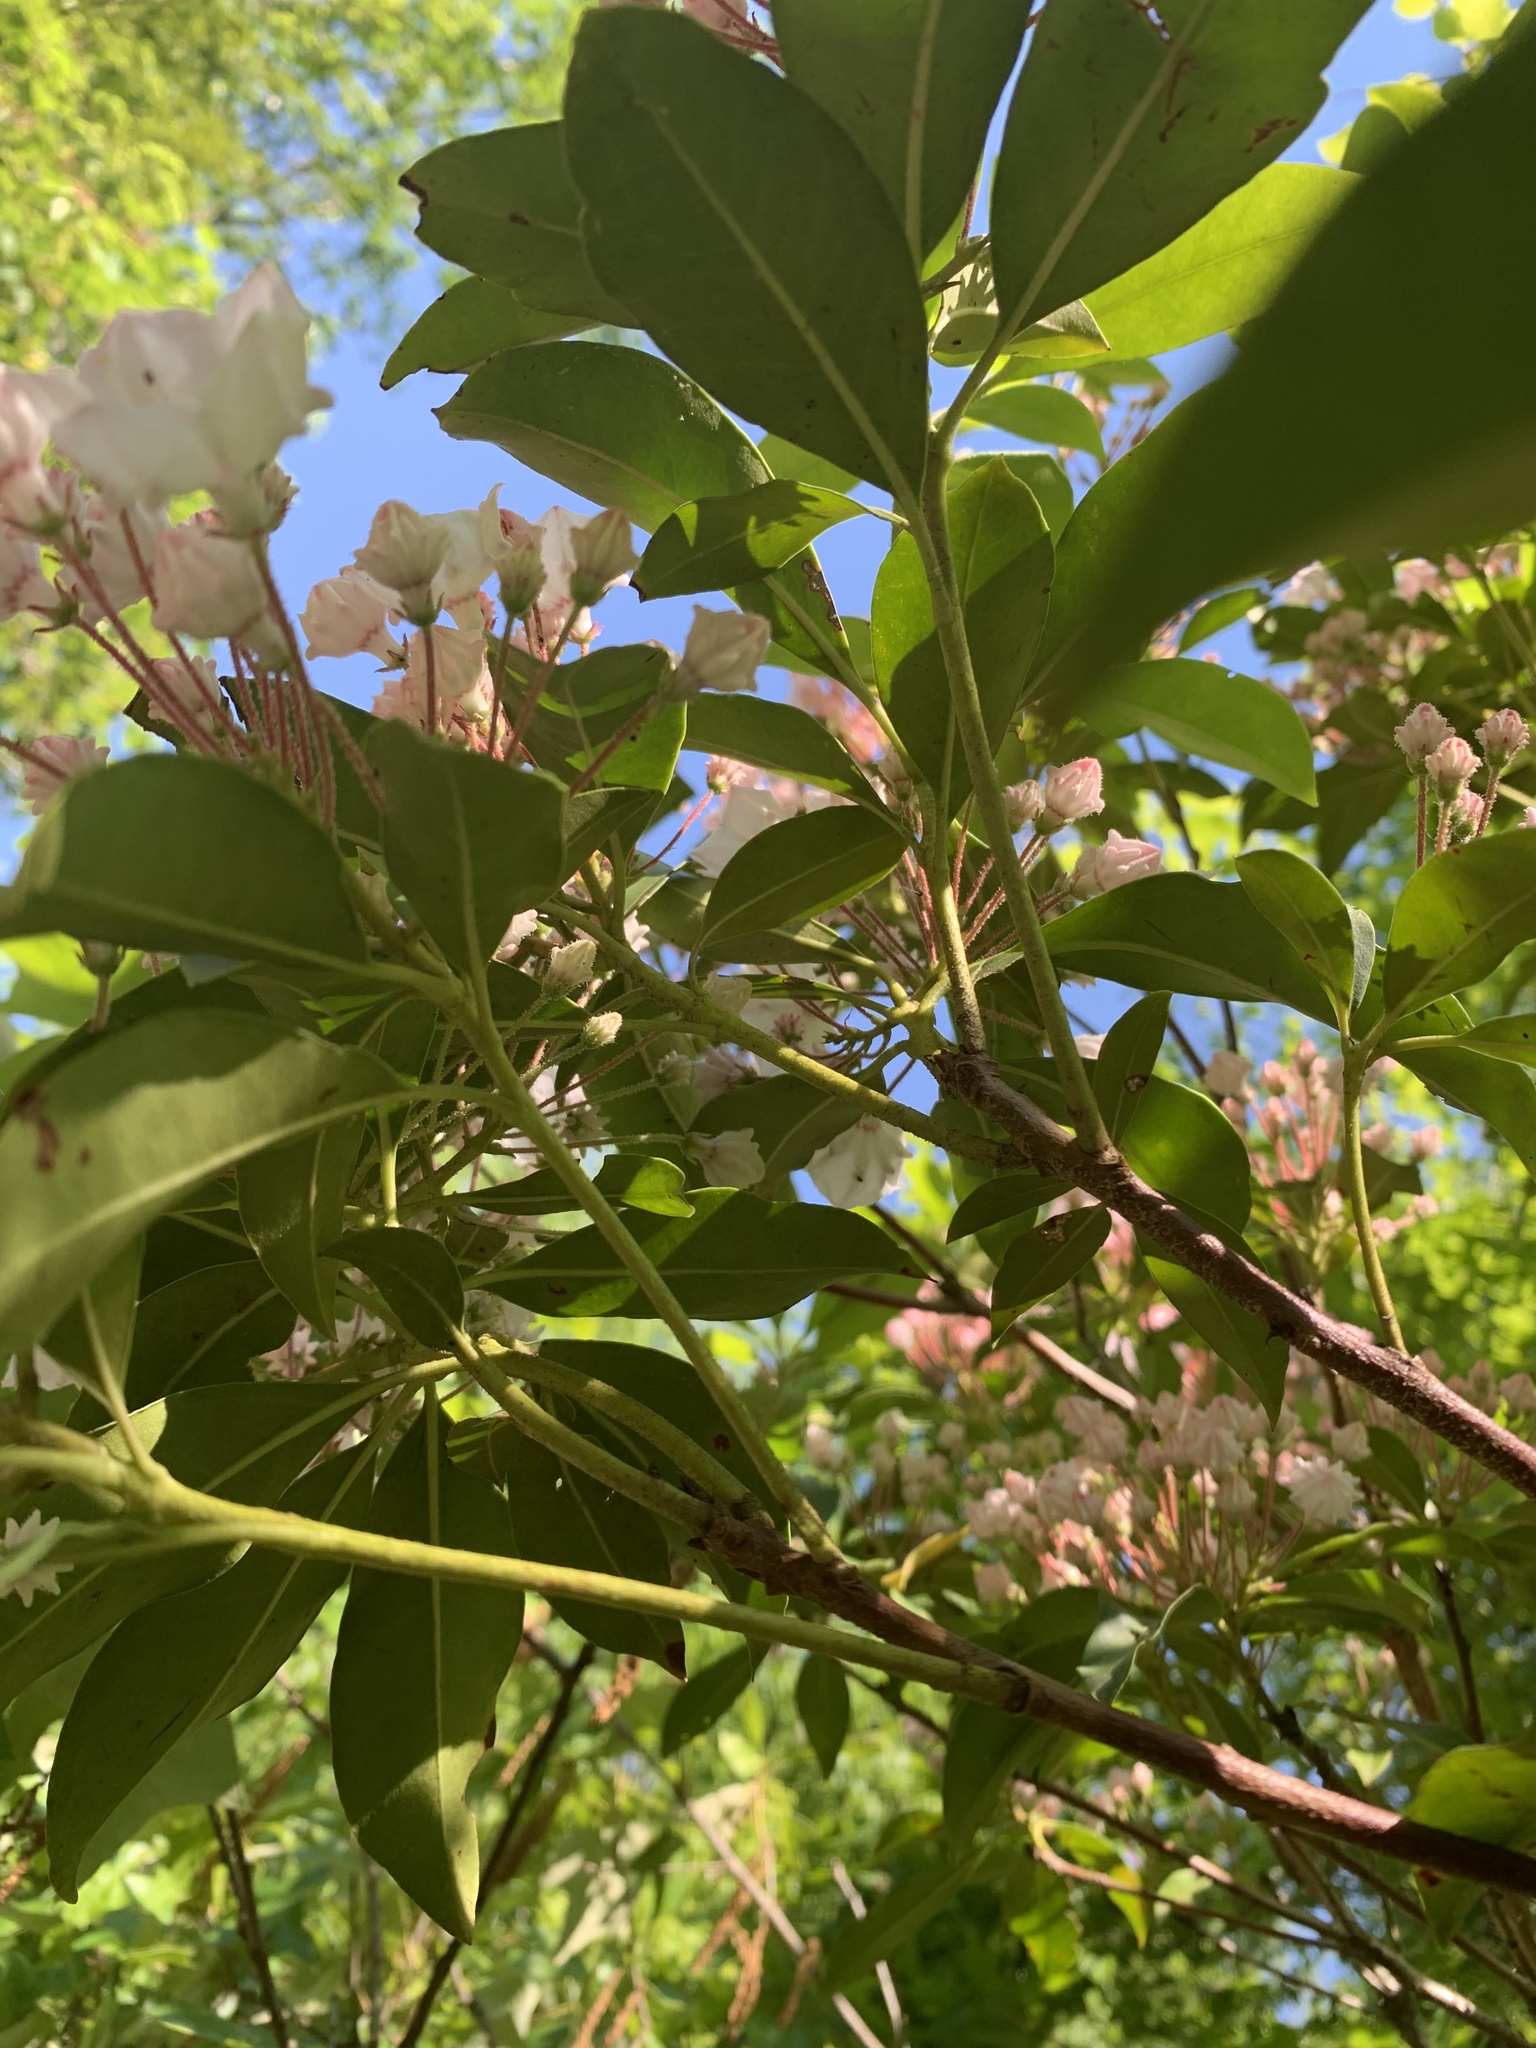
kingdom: Plantae
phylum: Tracheophyta
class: Magnoliopsida
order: Ericales
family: Ericaceae
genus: Kalmia
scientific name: Kalmia latifolia
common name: Mountain-laurel
